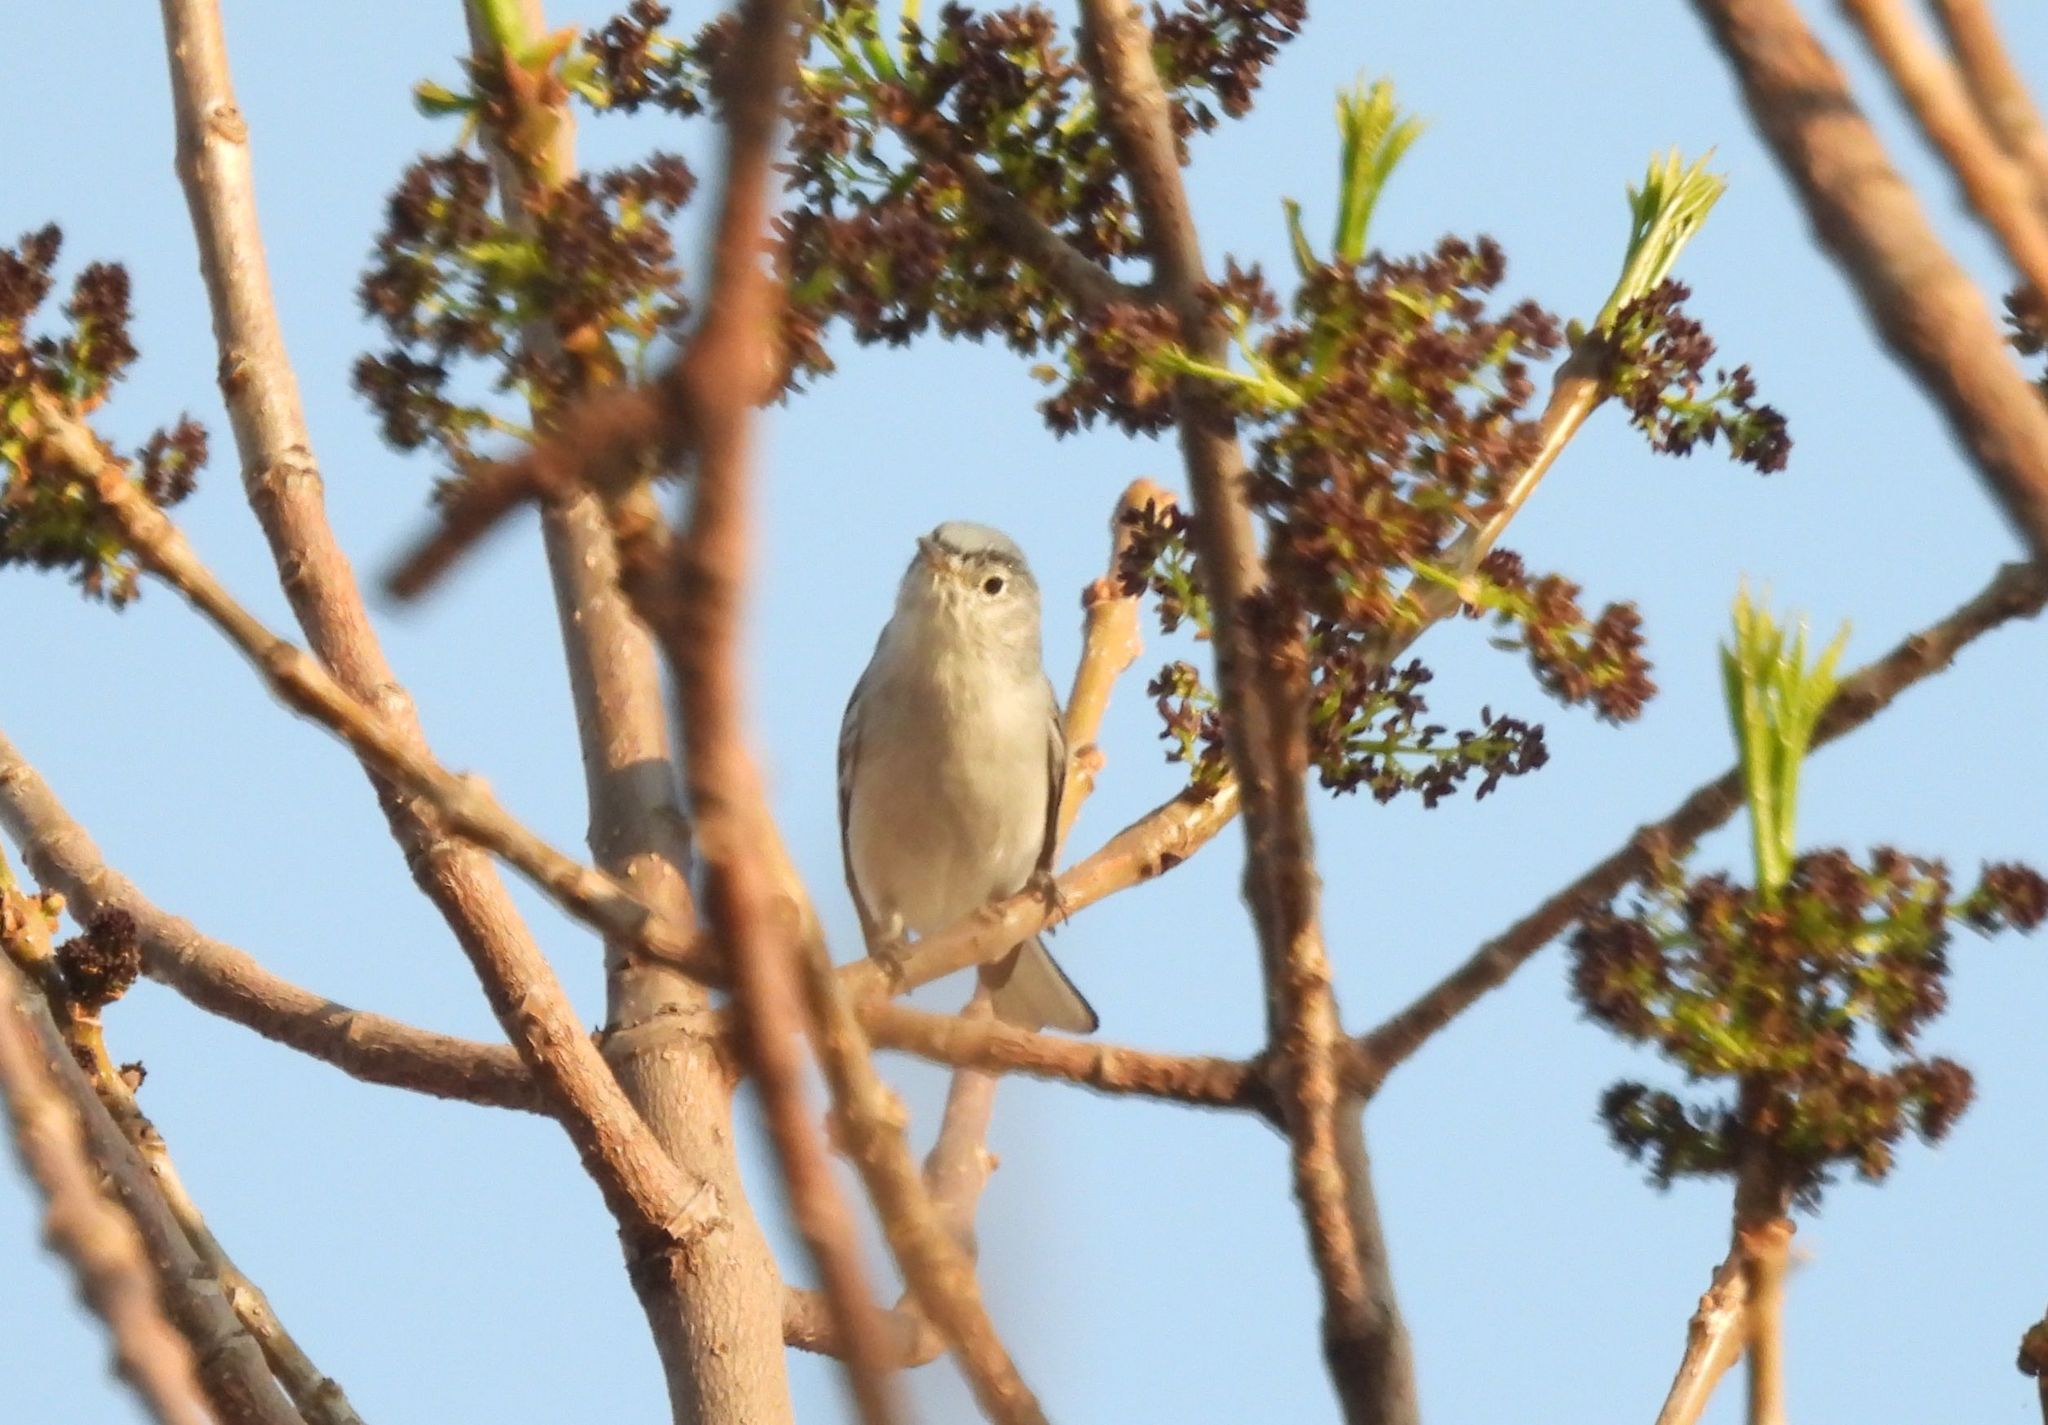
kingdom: Animalia
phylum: Chordata
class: Aves
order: Passeriformes
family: Polioptilidae
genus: Polioptila
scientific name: Polioptila caerulea
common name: Blue-gray gnatcatcher
